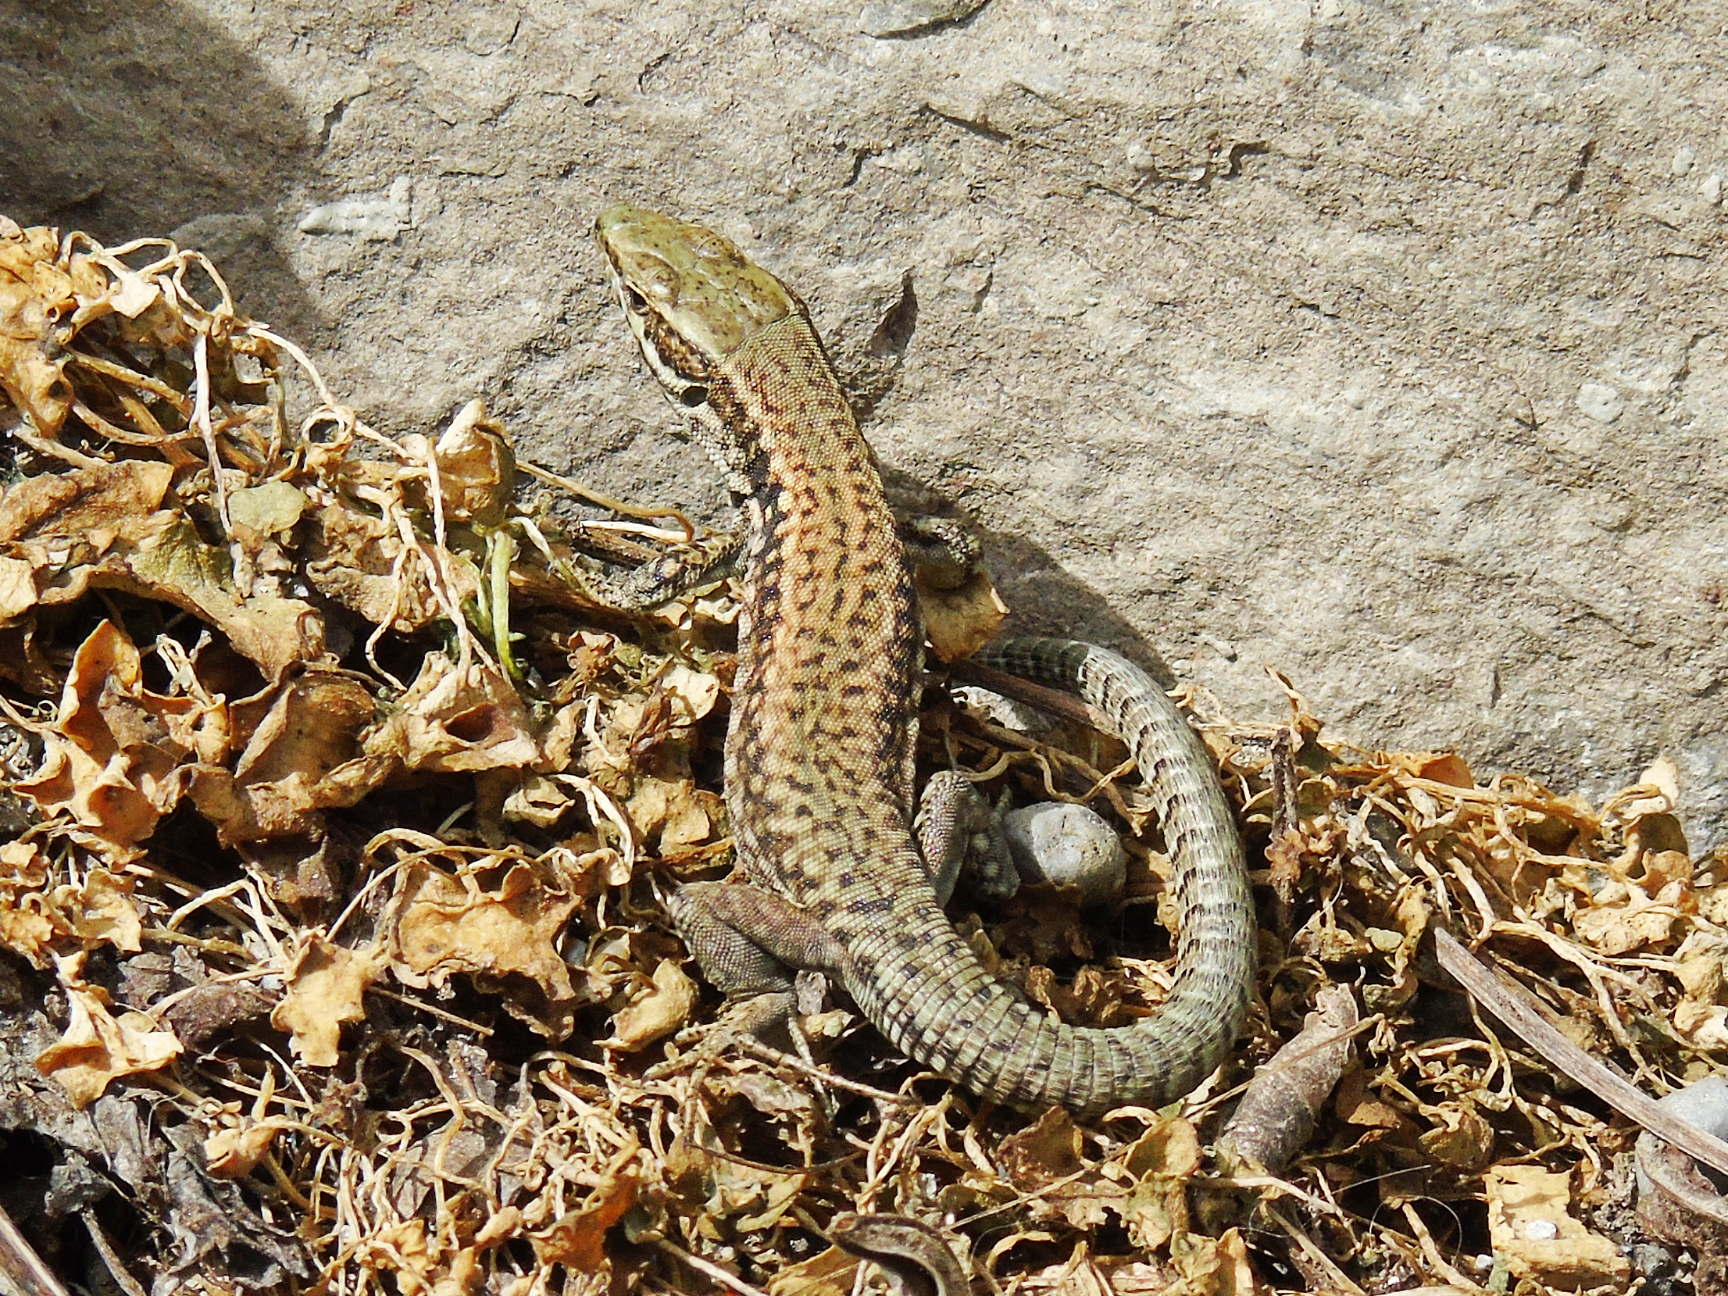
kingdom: Animalia
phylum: Chordata
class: Squamata
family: Lacertidae
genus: Podarcis
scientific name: Podarcis muralis
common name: Common wall lizard
